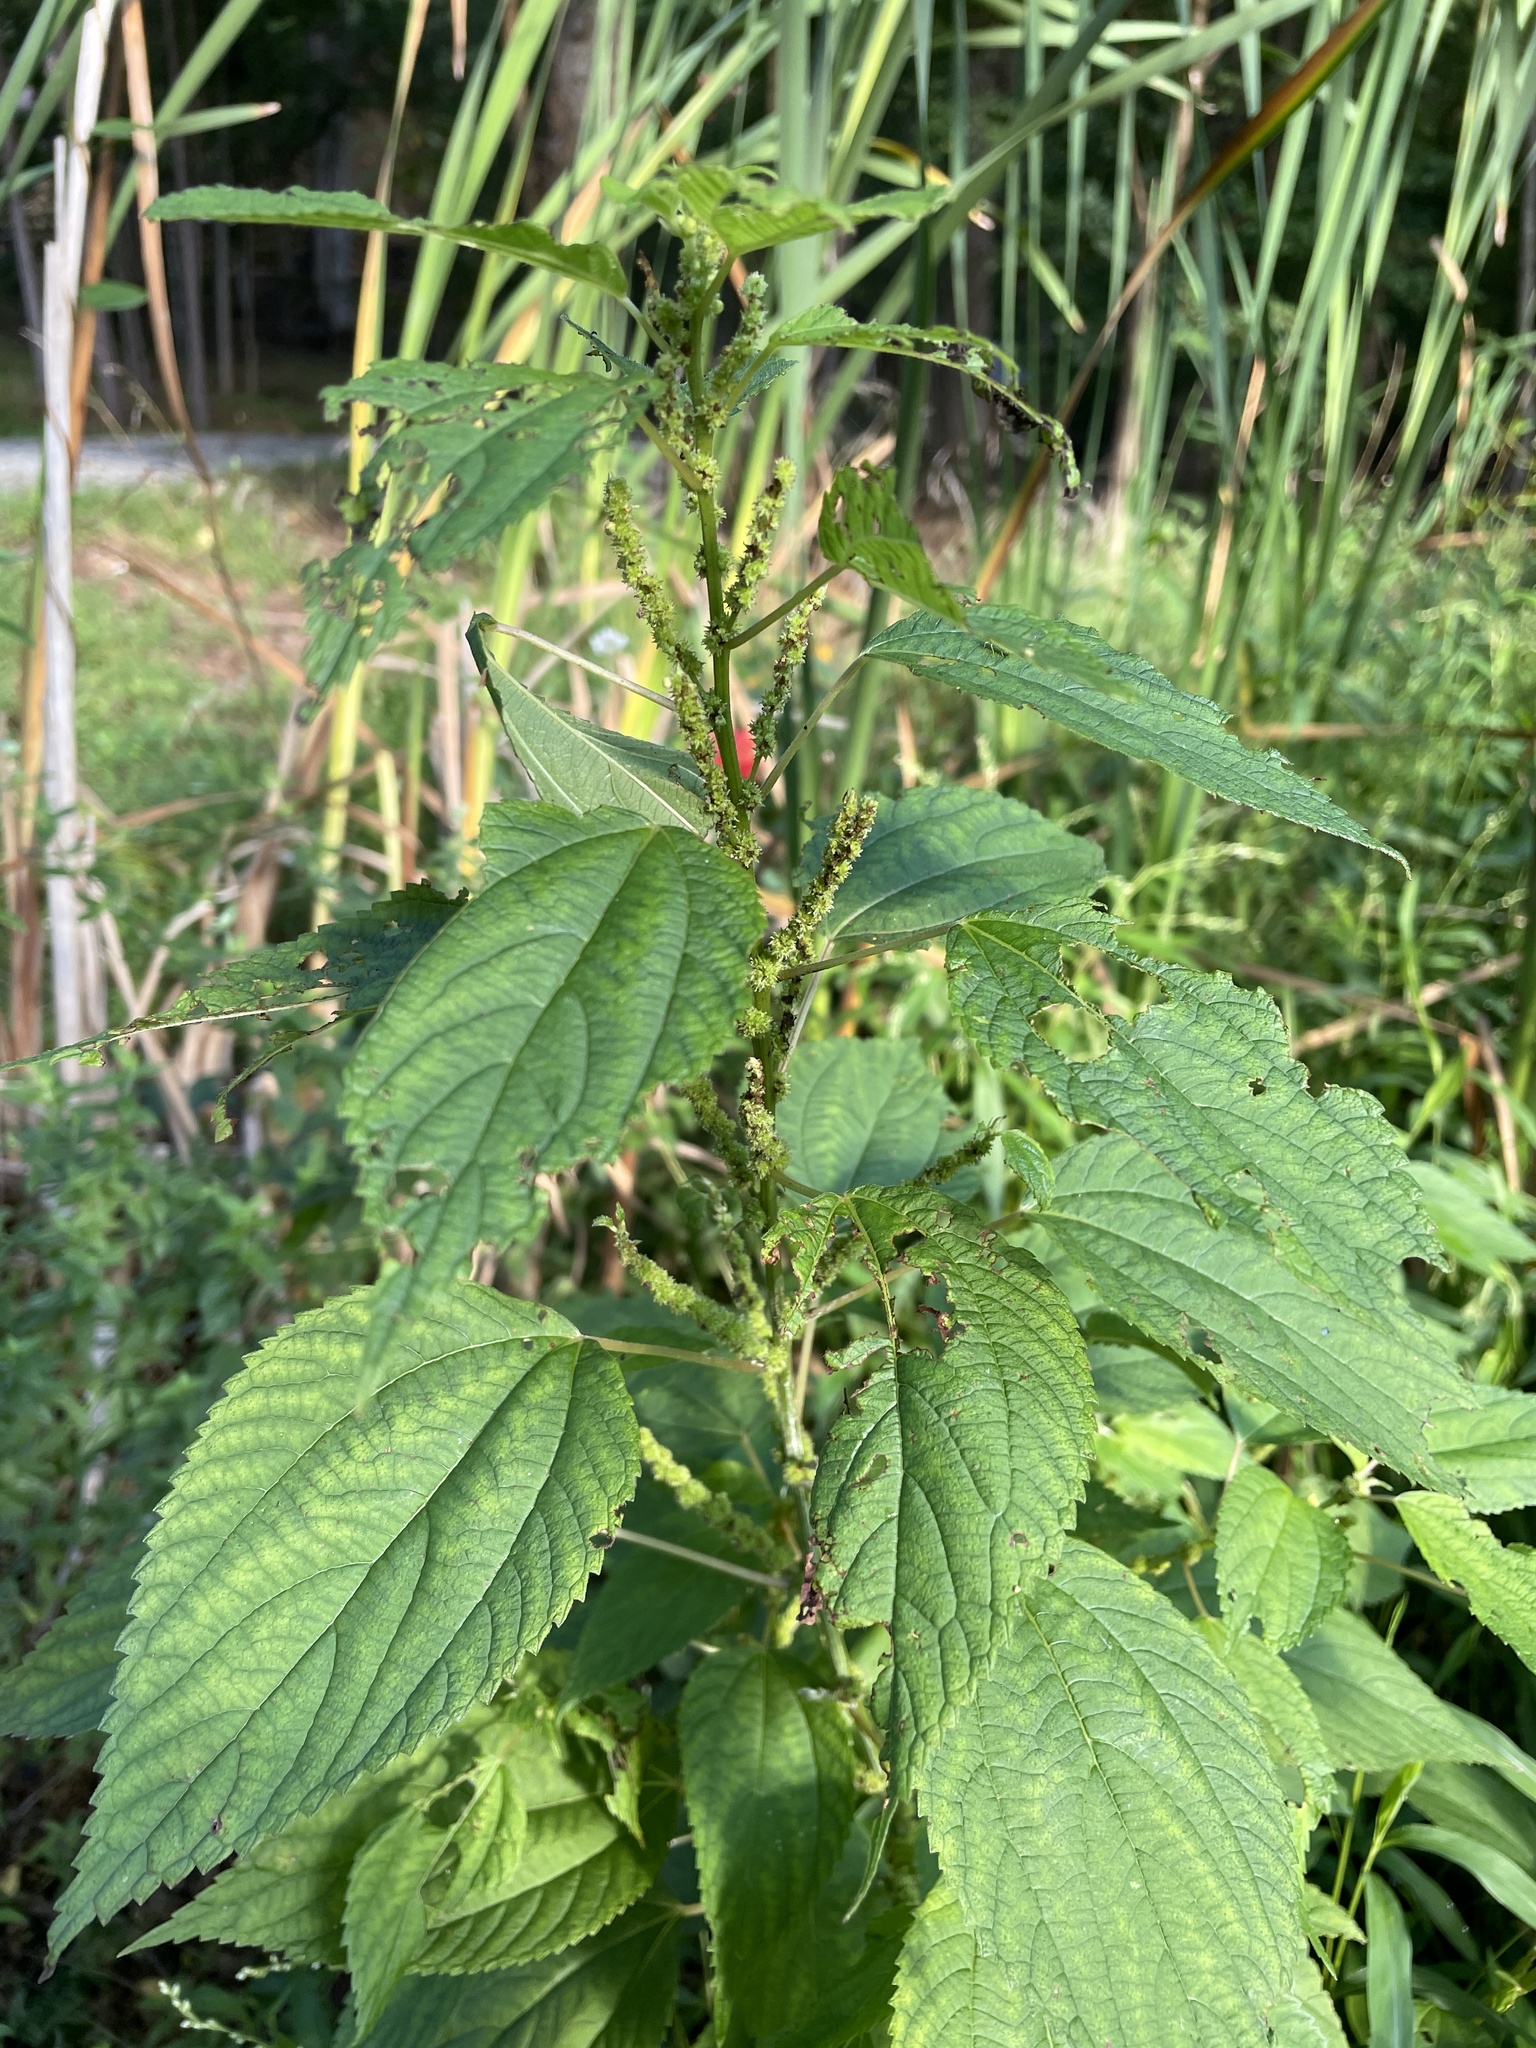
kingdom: Plantae
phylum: Tracheophyta
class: Magnoliopsida
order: Rosales
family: Urticaceae
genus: Boehmeria
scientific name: Boehmeria cylindrica
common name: Bog-hemp
